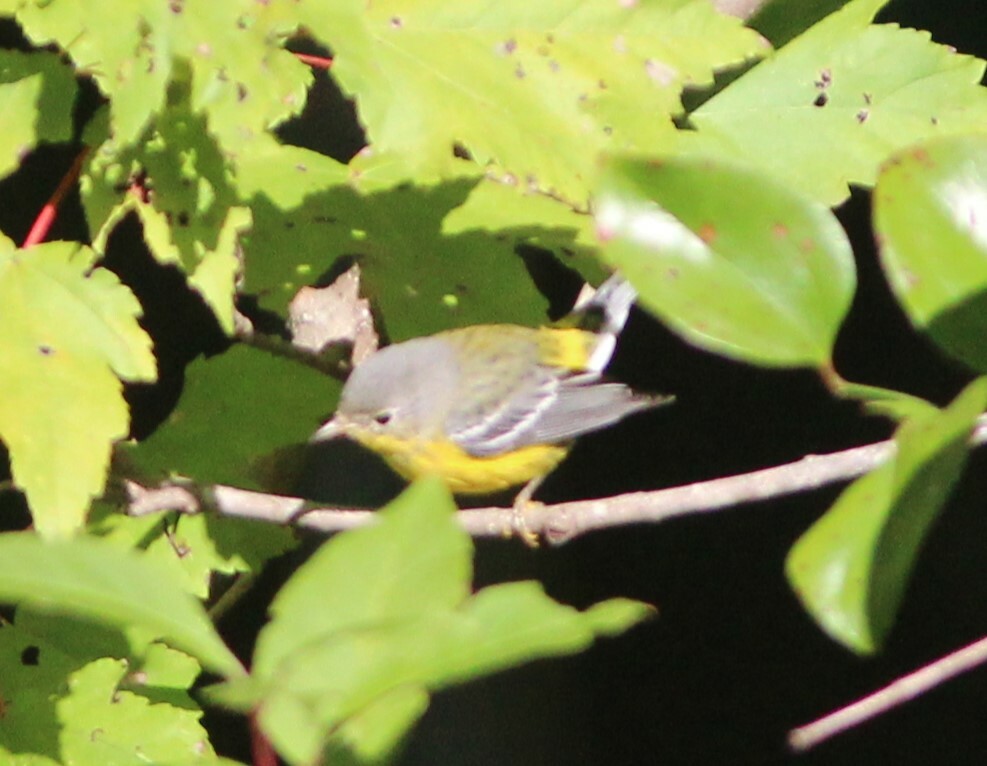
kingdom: Animalia
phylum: Chordata
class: Aves
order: Passeriformes
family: Parulidae
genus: Setophaga
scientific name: Setophaga magnolia
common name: Magnolia warbler
